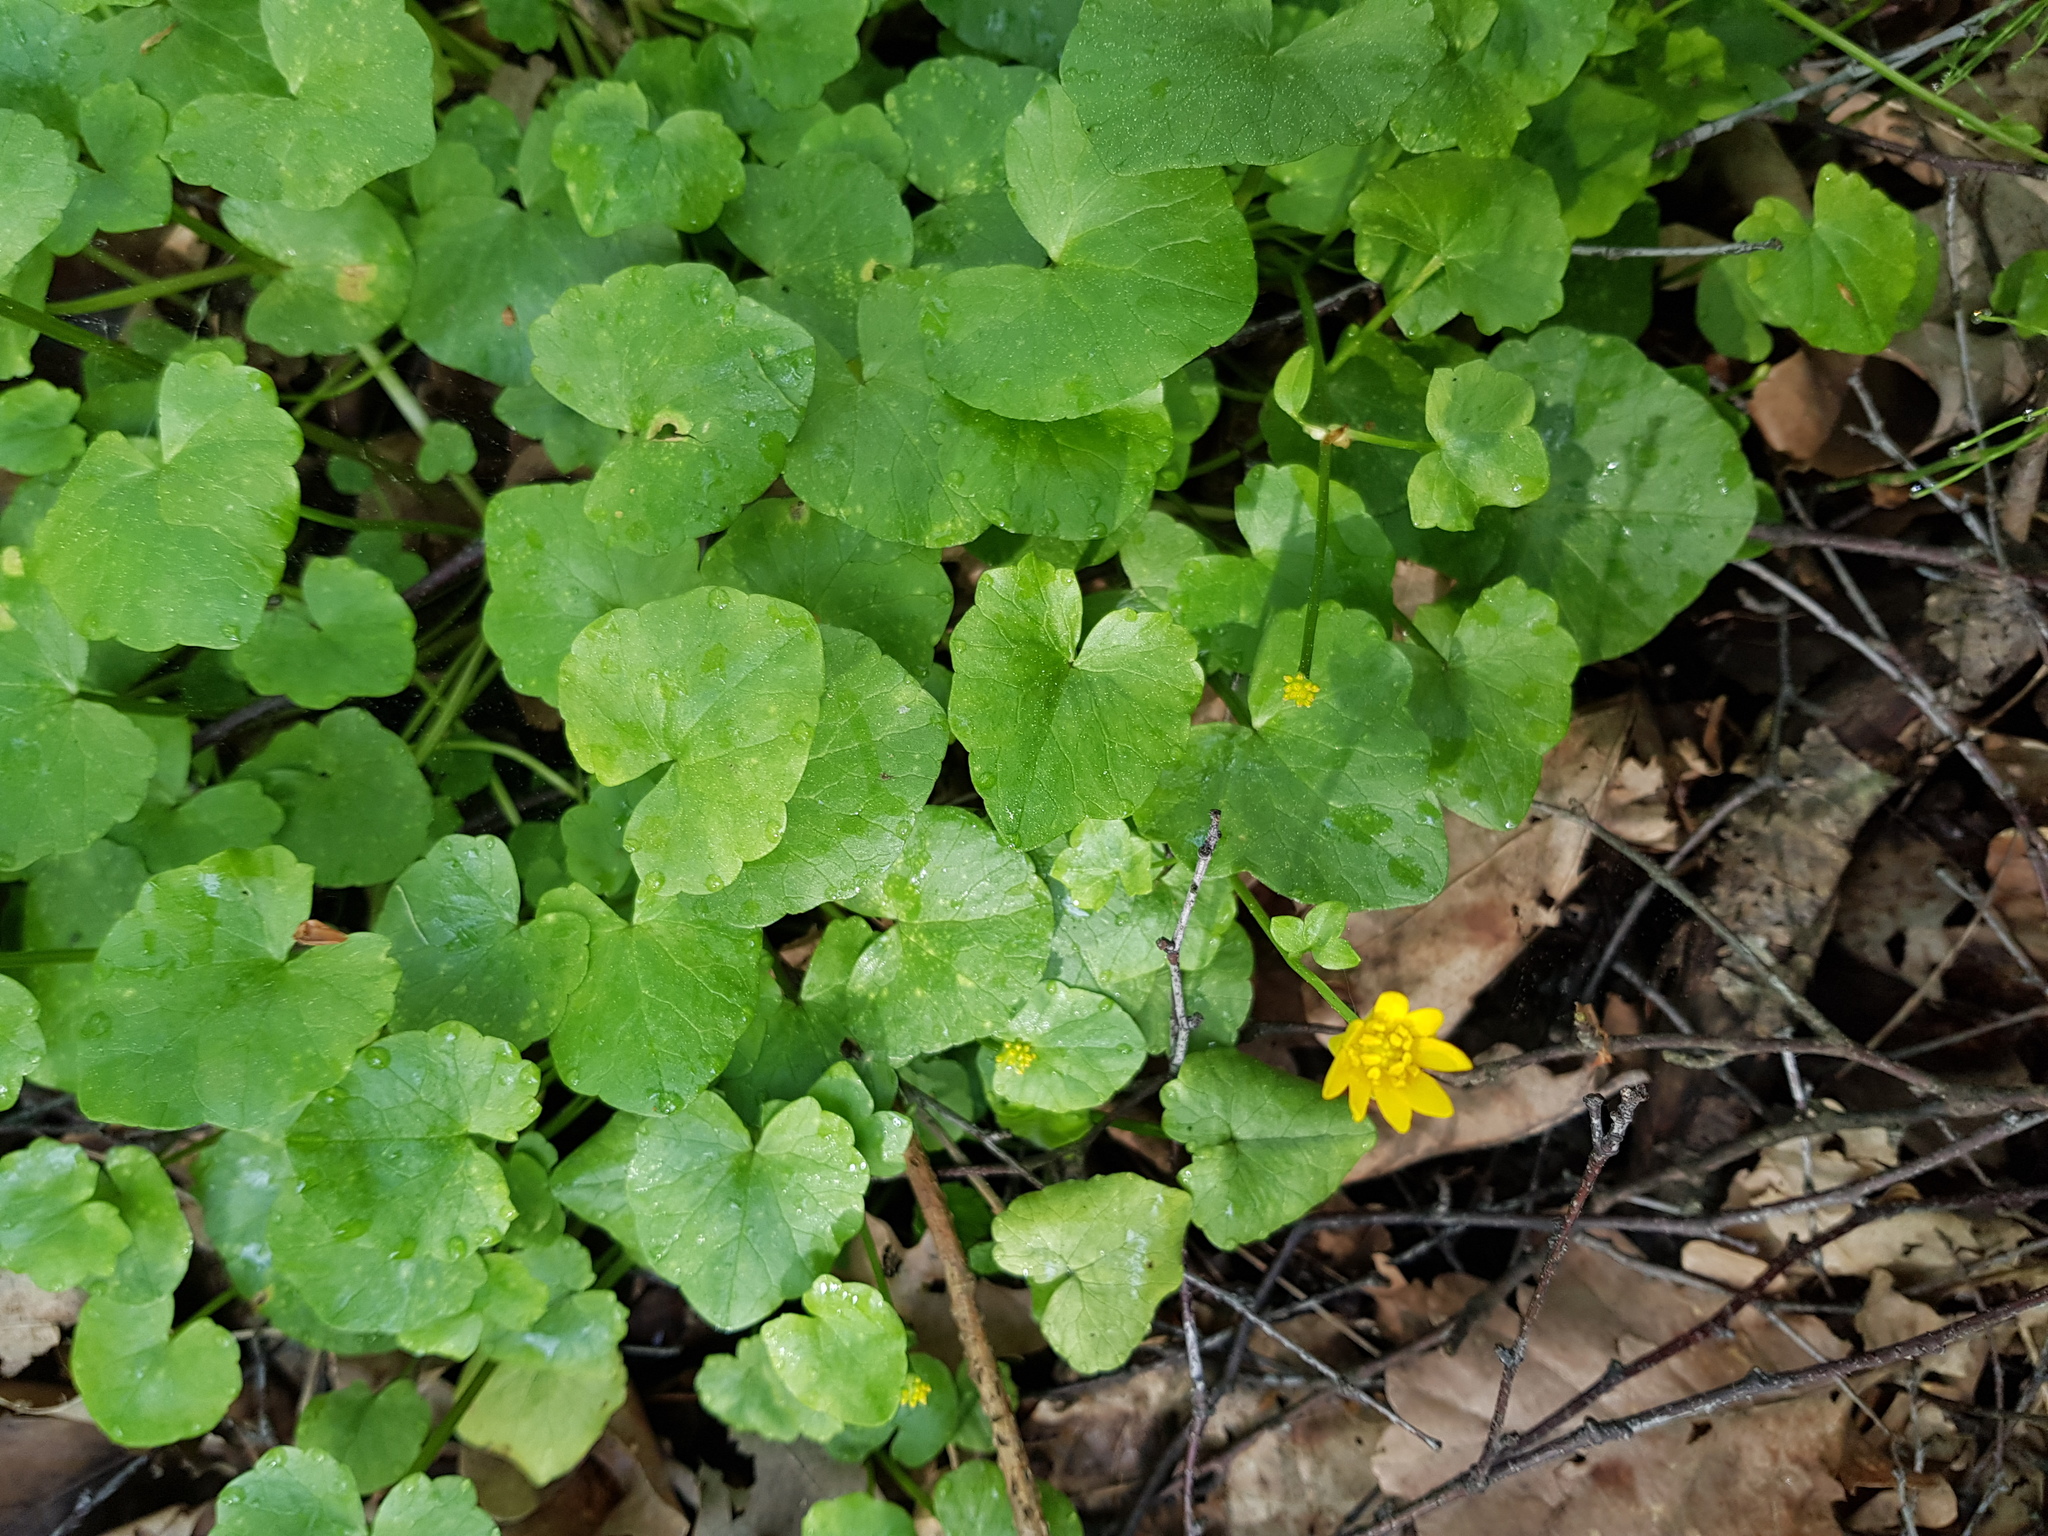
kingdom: Plantae
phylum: Tracheophyta
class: Magnoliopsida
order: Ranunculales
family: Ranunculaceae
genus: Ficaria
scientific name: Ficaria verna
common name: Lesser celandine
